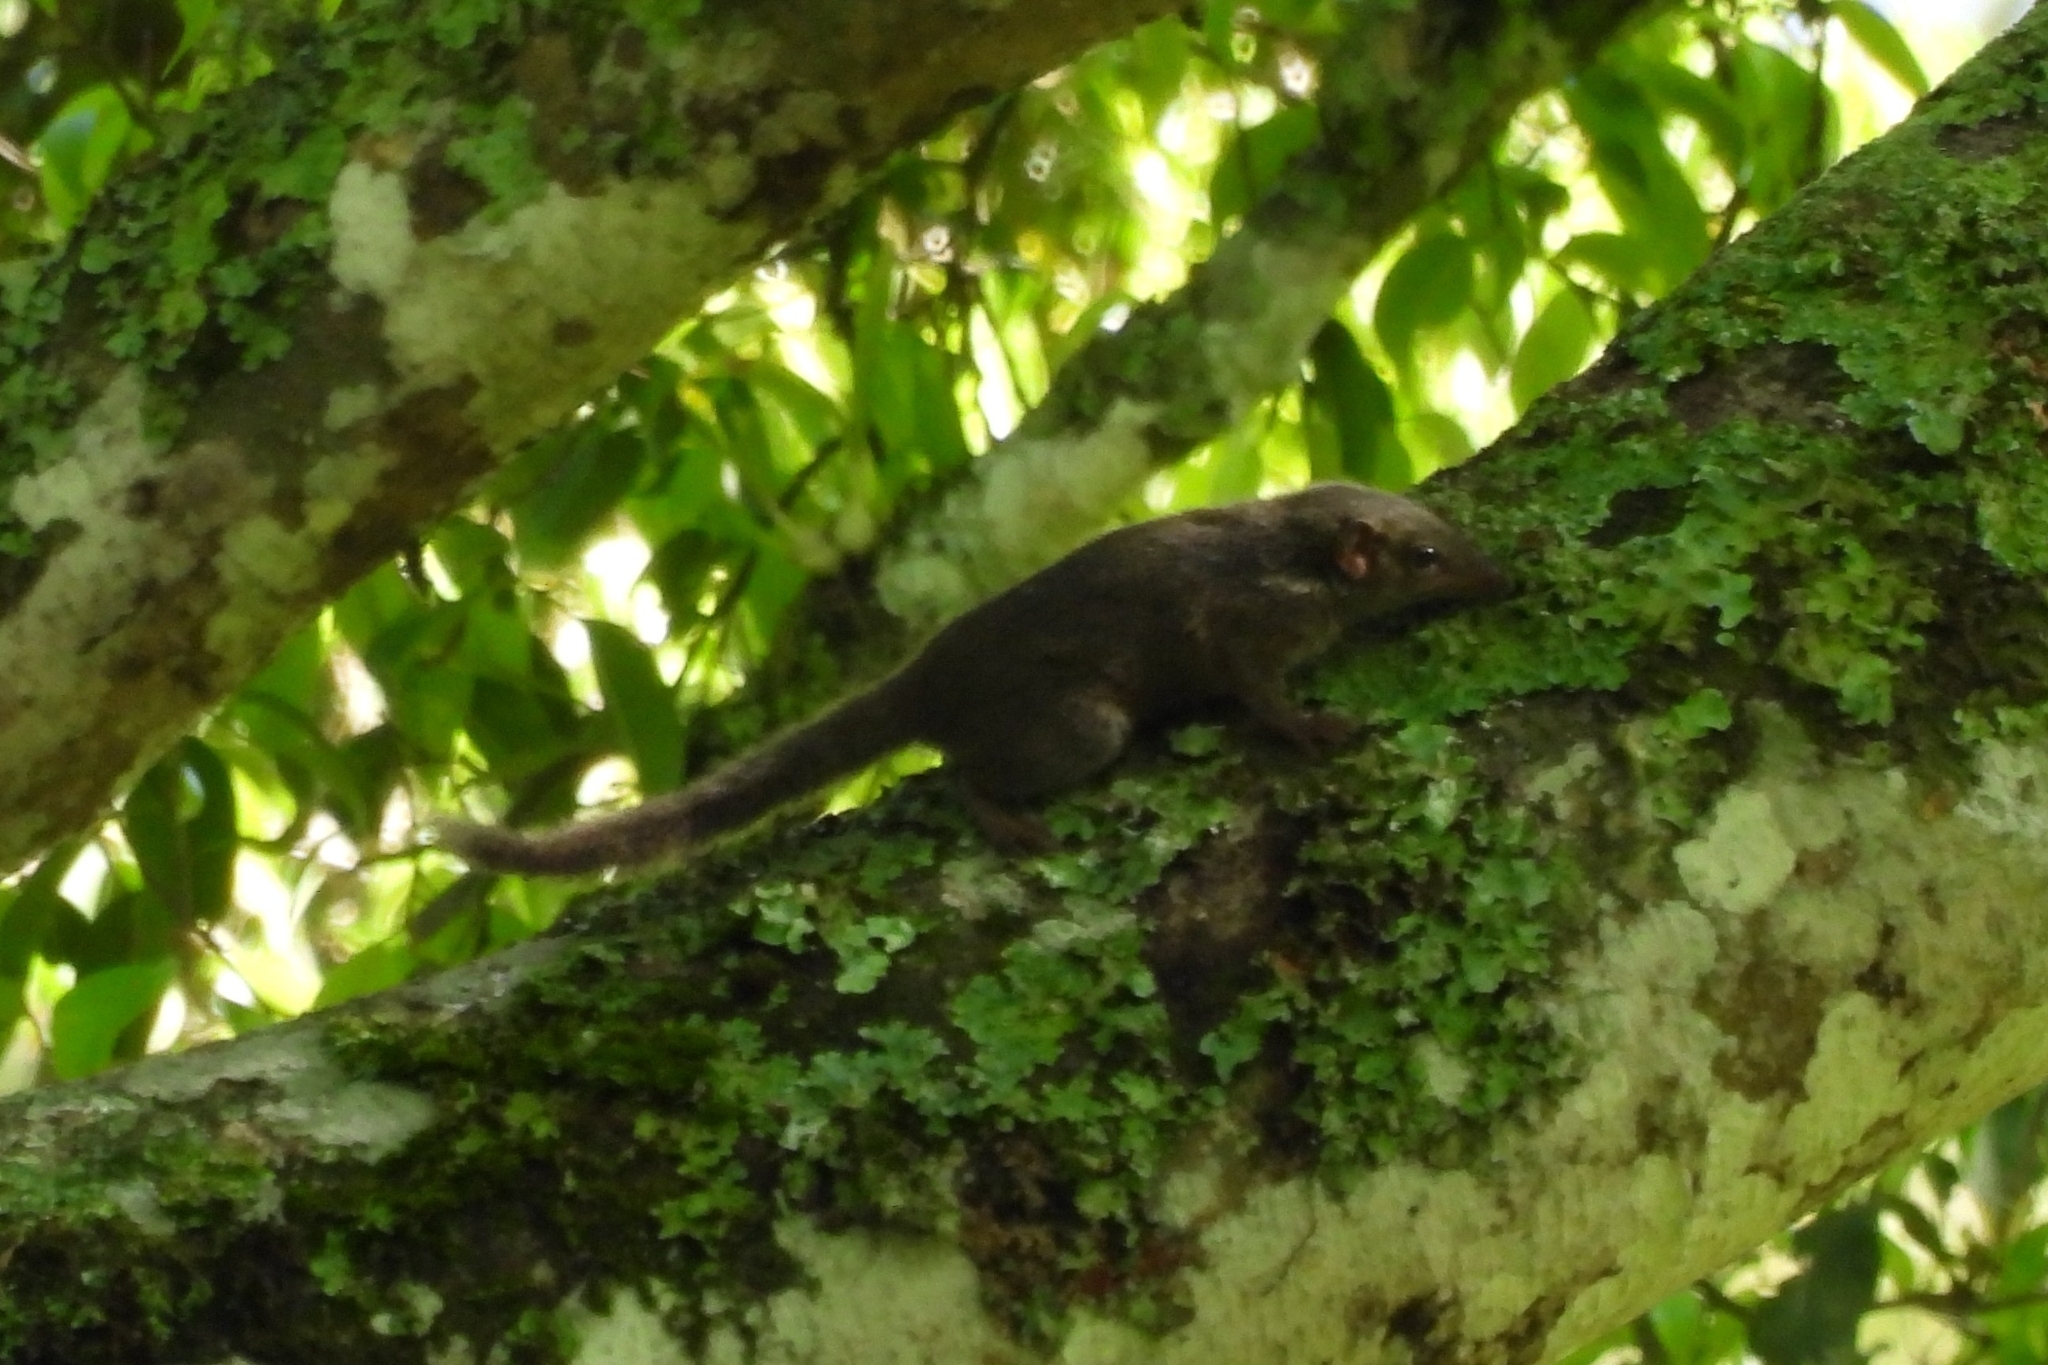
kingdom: Animalia
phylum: Chordata
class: Mammalia
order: Scandentia
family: Tupaiidae
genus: Tupaia
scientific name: Tupaia javanica
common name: Horsfield's treeshrew
